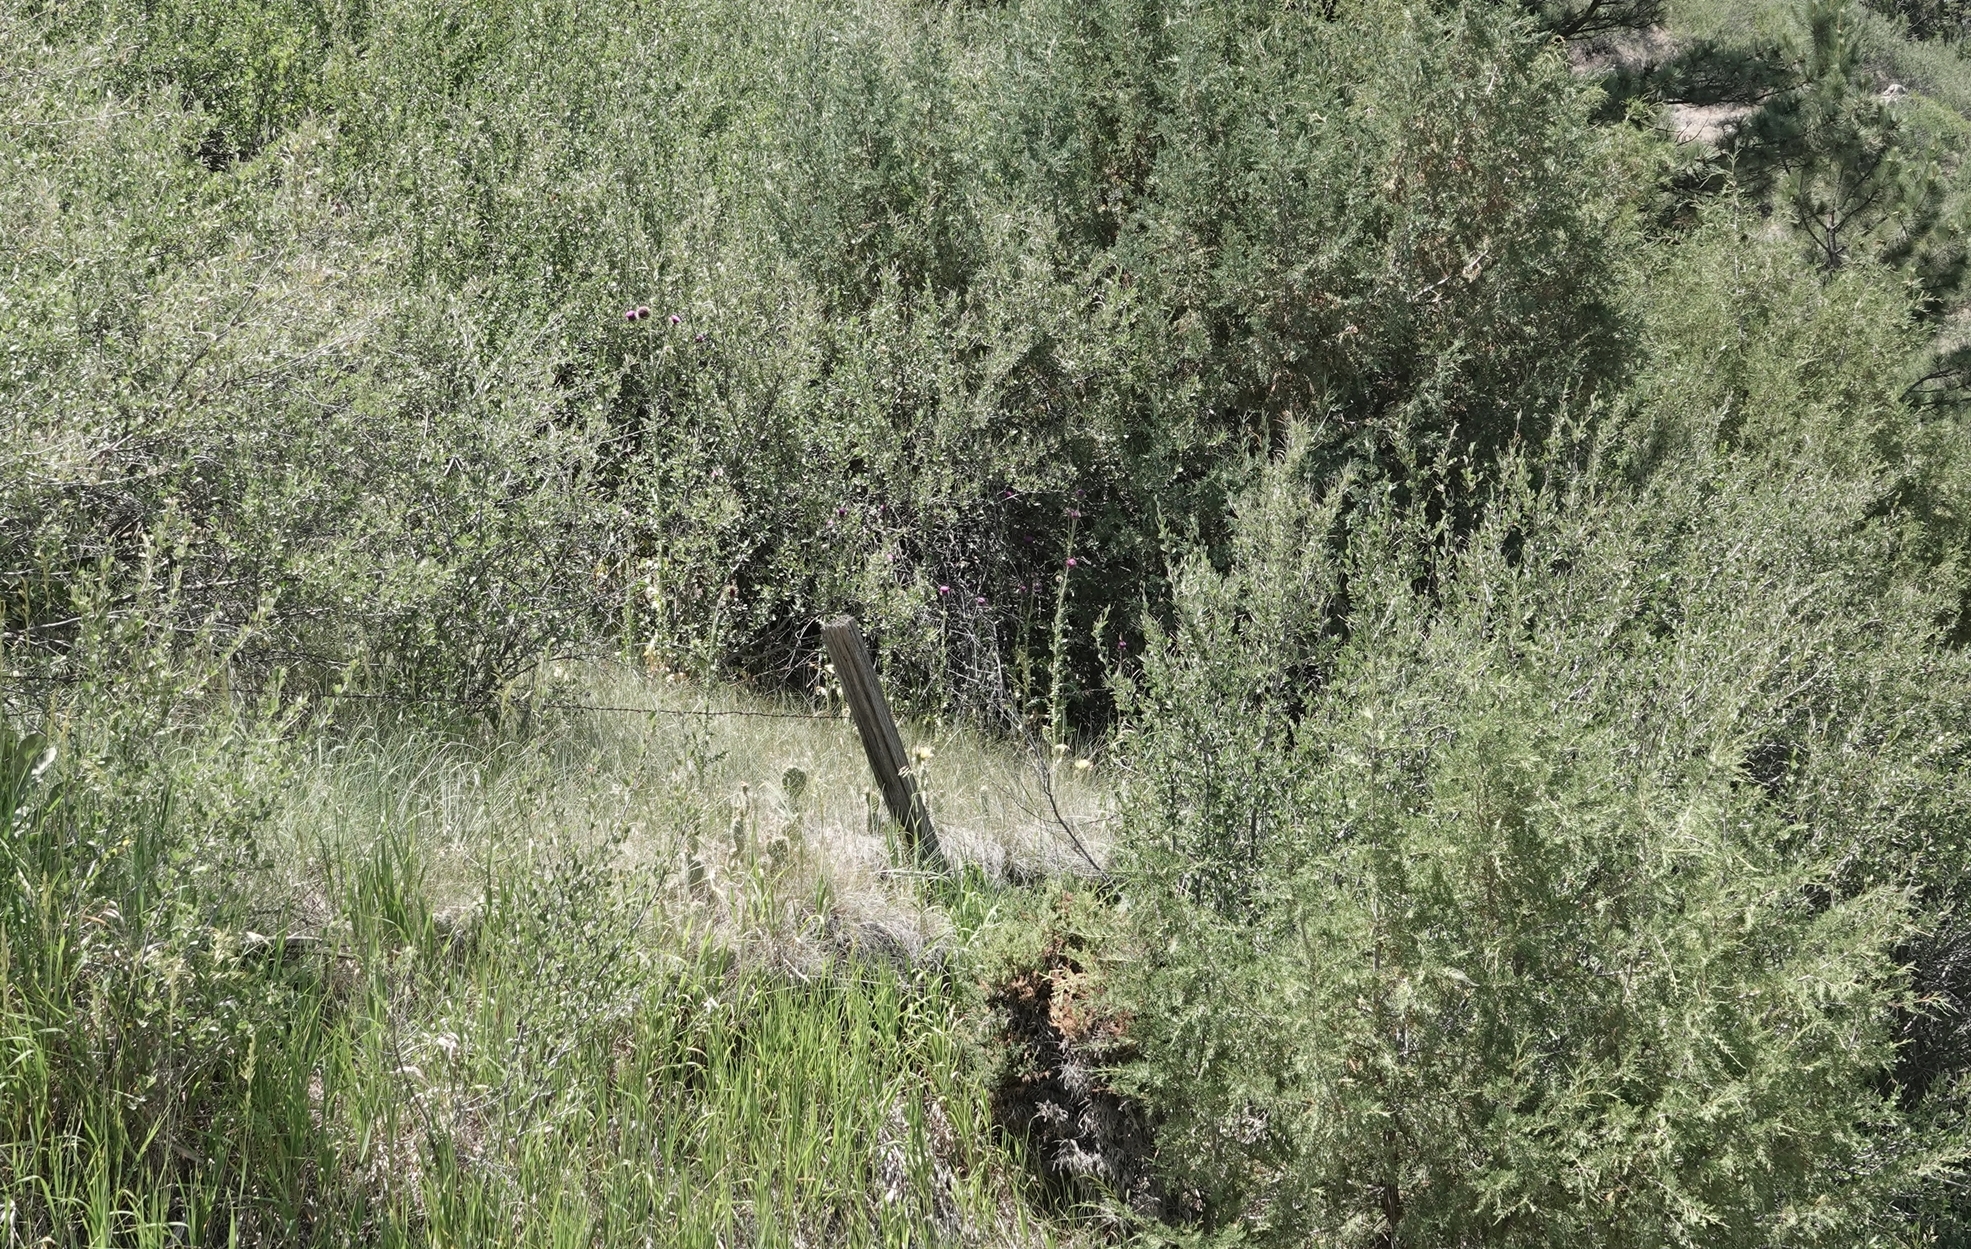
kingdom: Plantae
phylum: Tracheophyta
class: Magnoliopsida
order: Asterales
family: Asteraceae
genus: Carduus
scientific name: Carduus nutans
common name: Musk thistle
